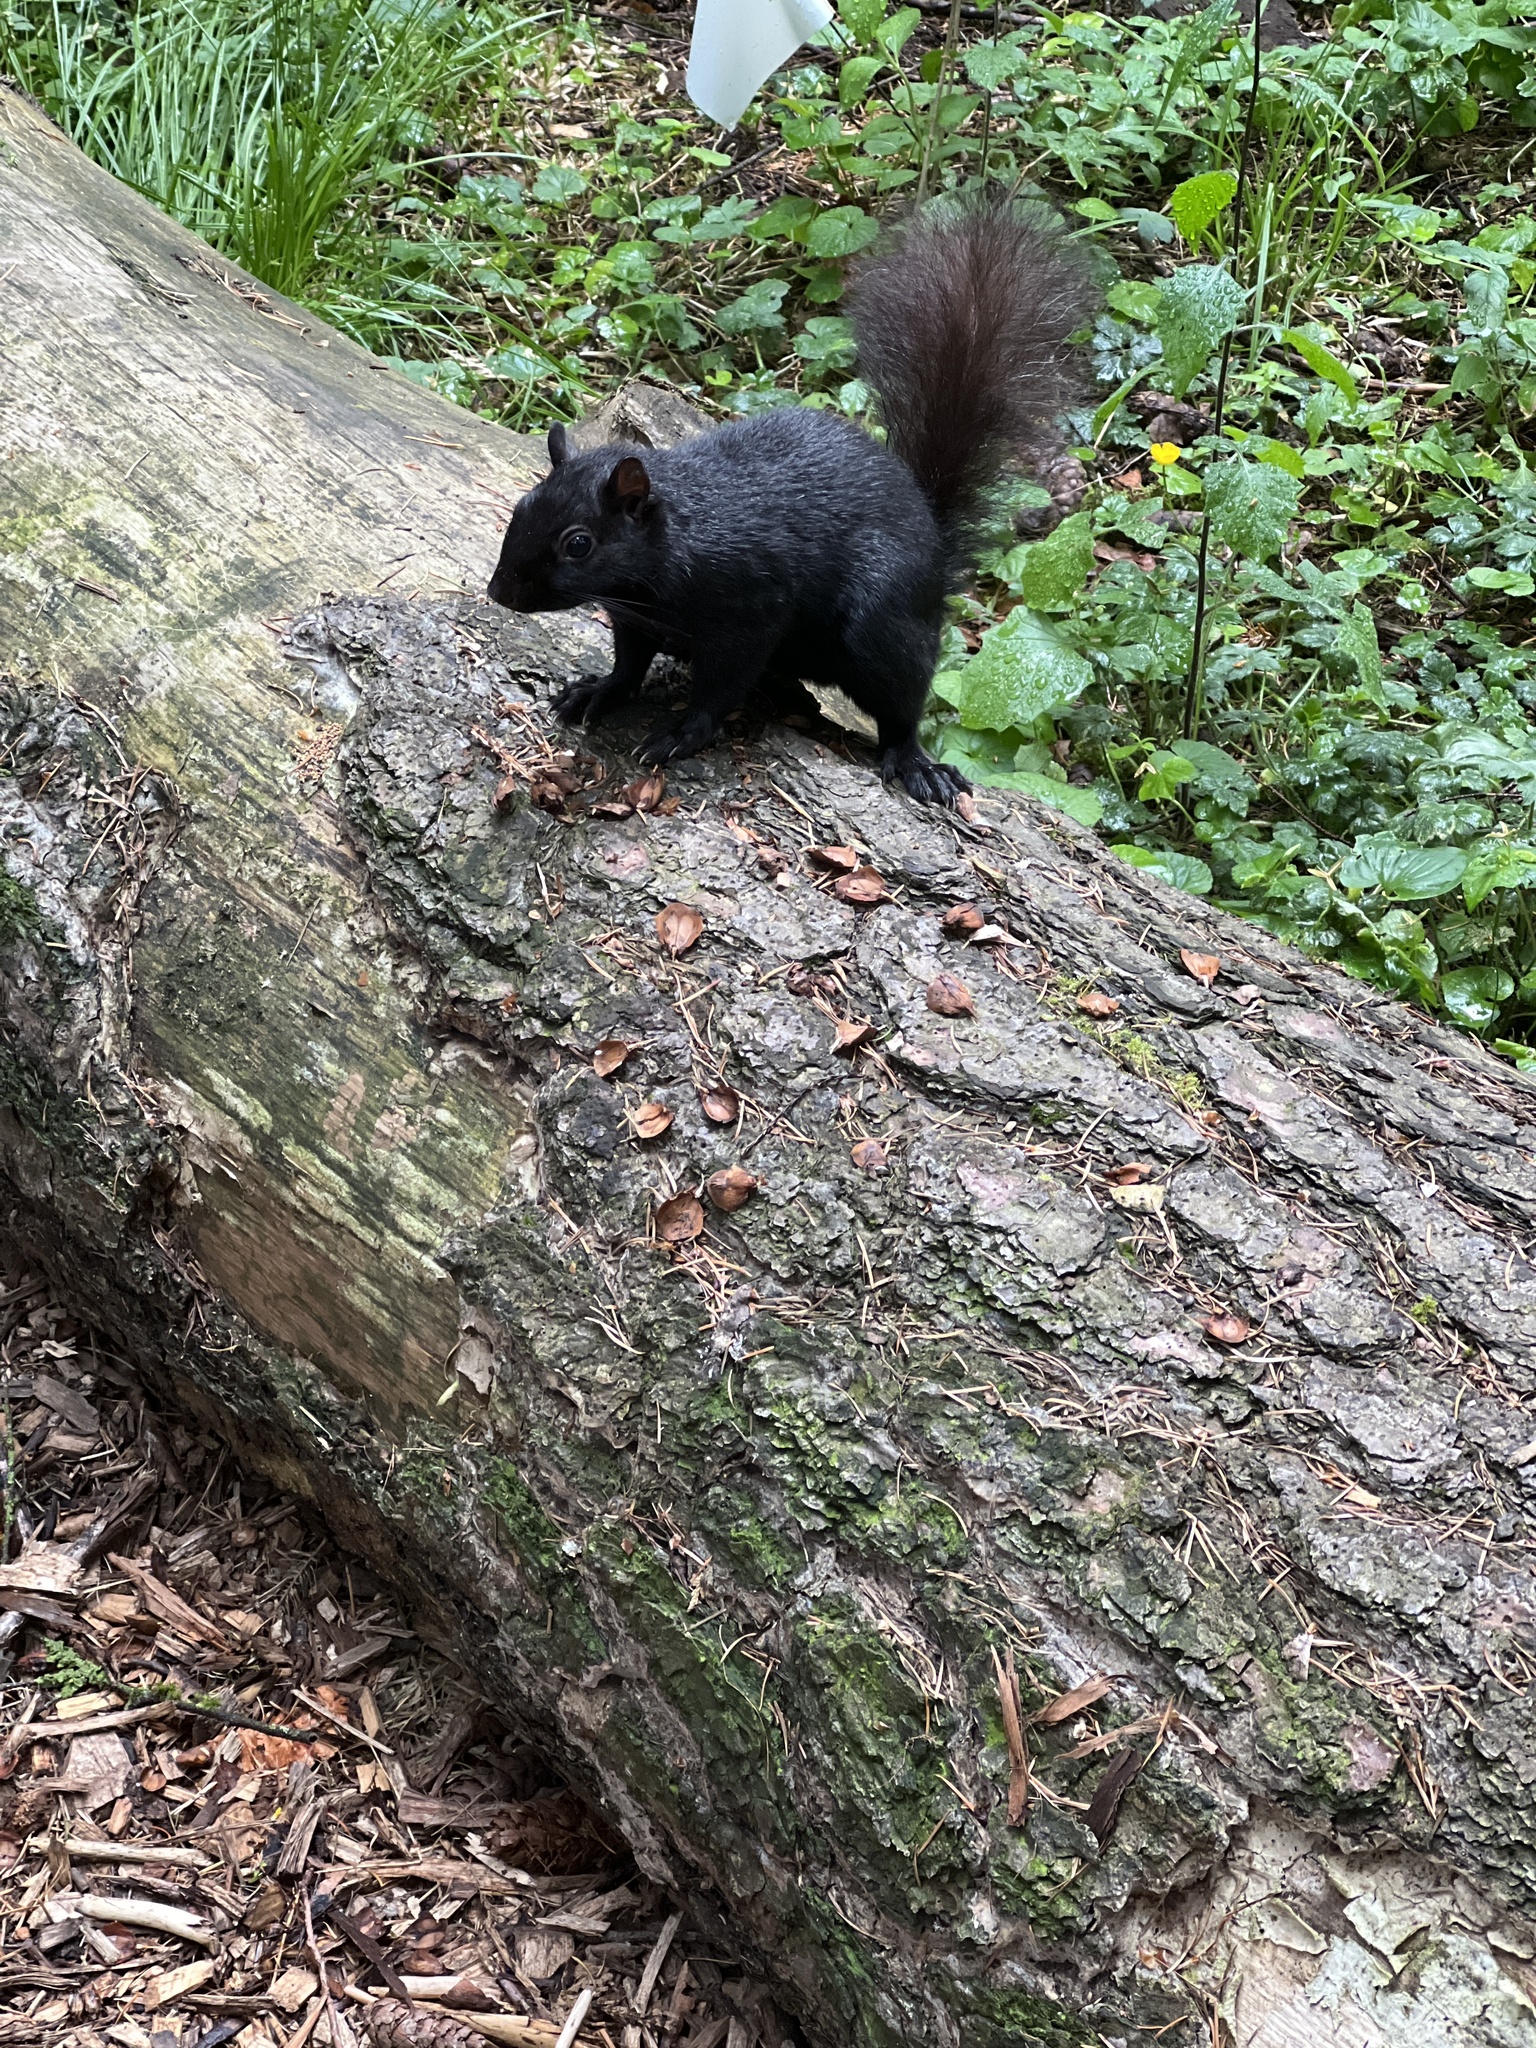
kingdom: Animalia
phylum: Chordata
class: Mammalia
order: Rodentia
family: Sciuridae
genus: Sciurus
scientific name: Sciurus carolinensis
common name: Eastern gray squirrel
